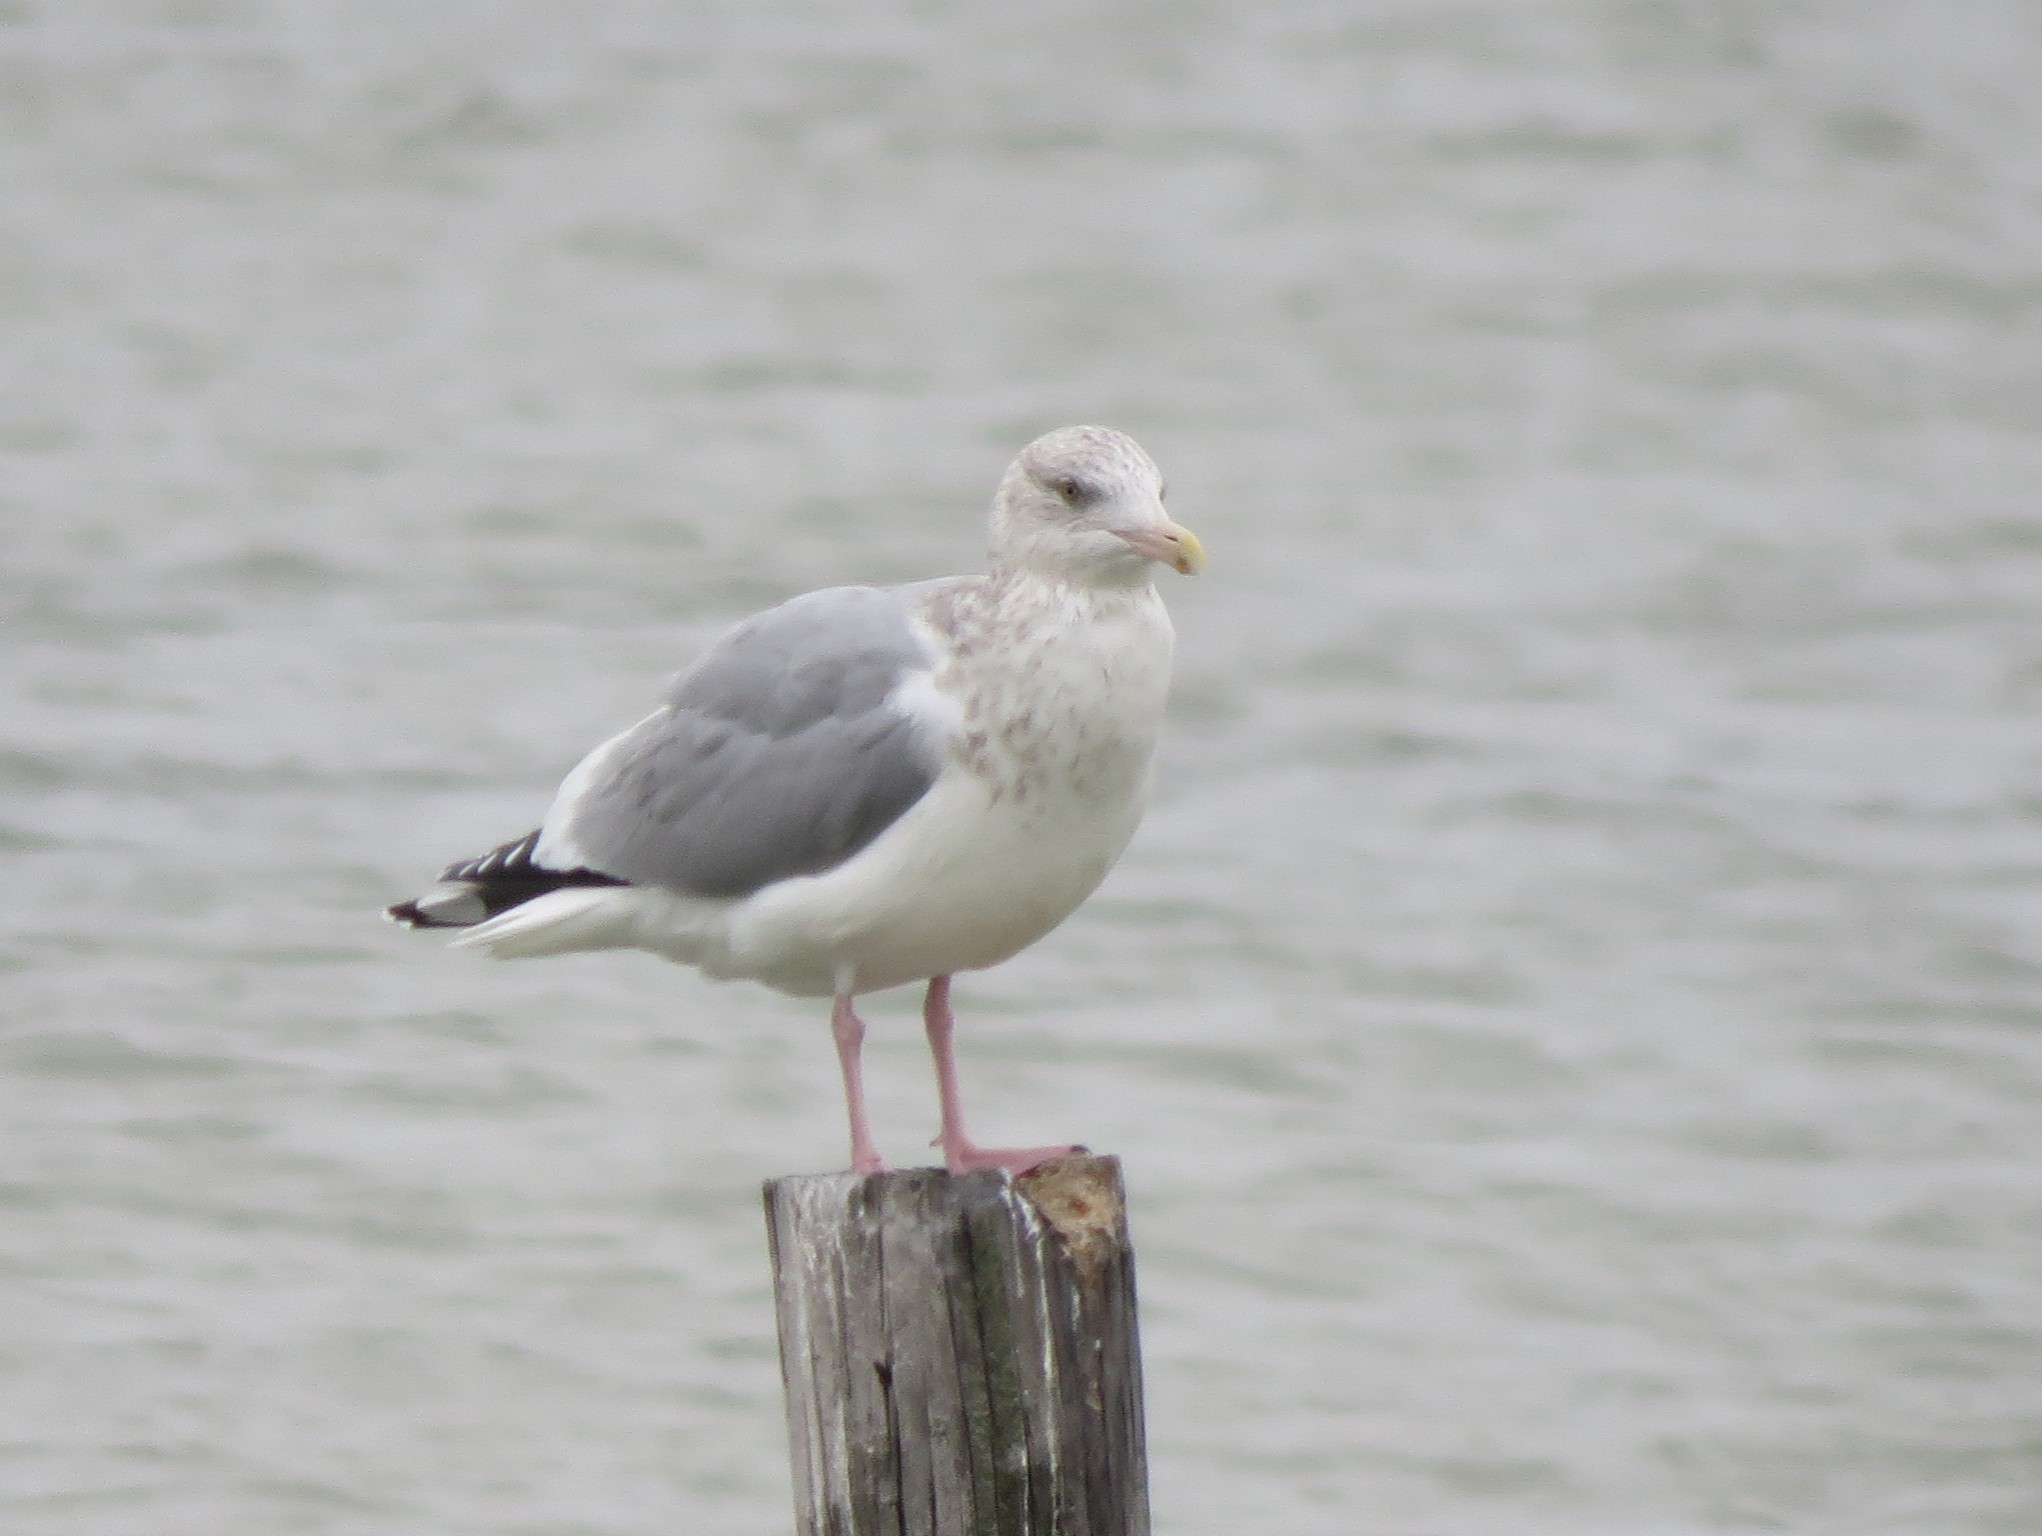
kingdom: Animalia
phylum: Chordata
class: Aves
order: Charadriiformes
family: Laridae
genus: Larus
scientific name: Larus argentatus
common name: Herring gull
